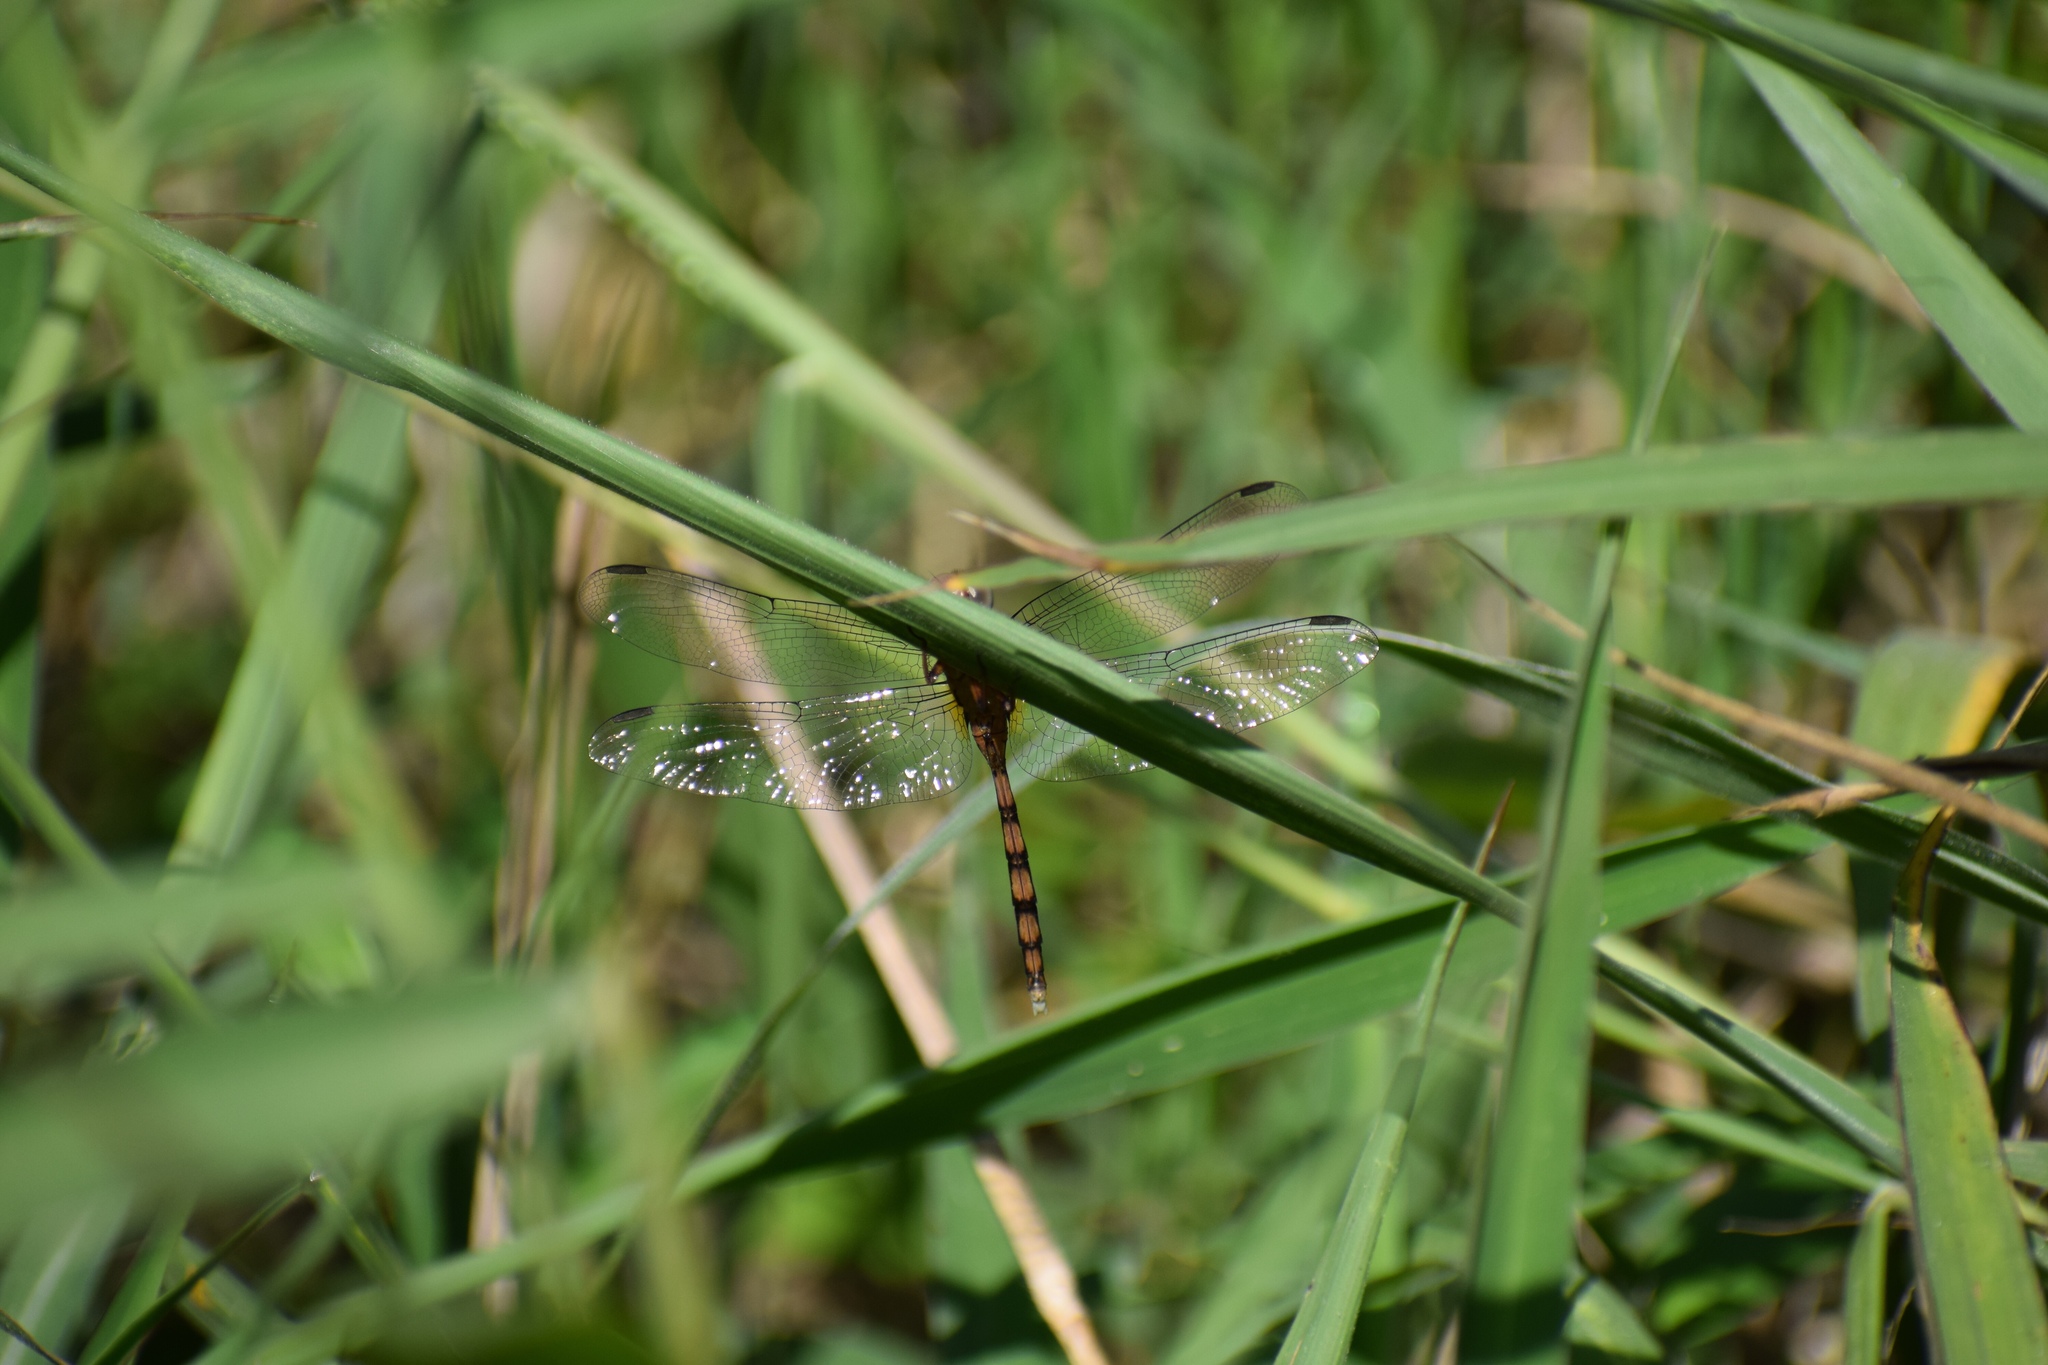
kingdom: Animalia
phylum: Arthropoda
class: Insecta
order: Odonata
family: Libellulidae
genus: Orthetrum
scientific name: Orthetrum julia
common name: Julia skimmer
